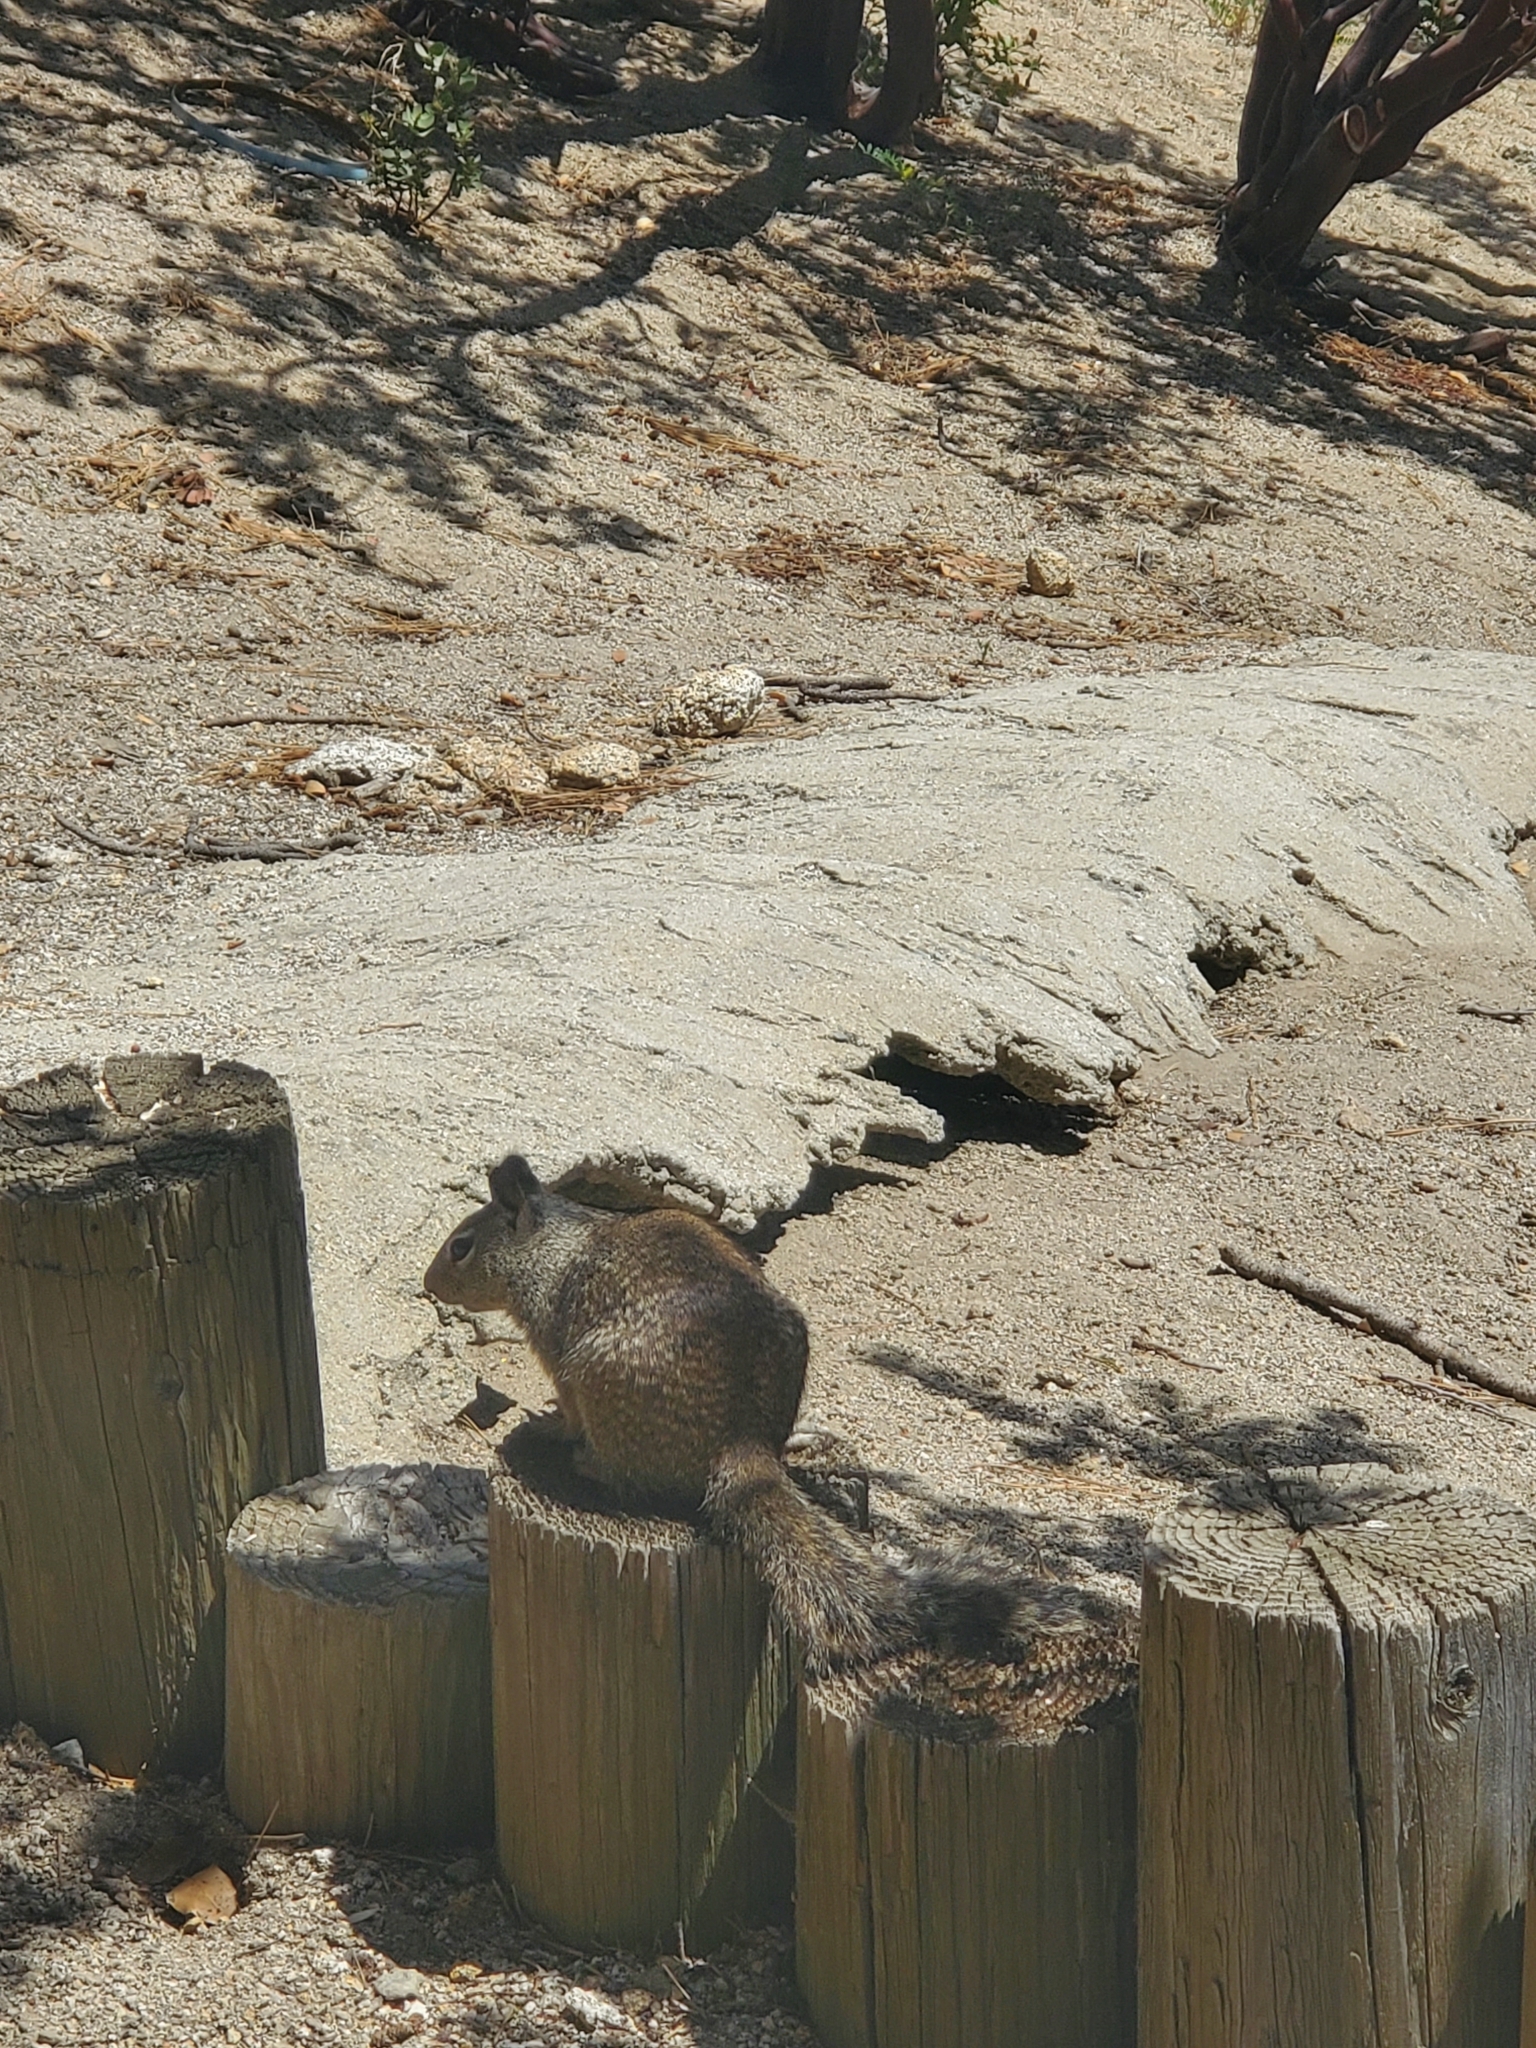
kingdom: Animalia
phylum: Chordata
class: Mammalia
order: Rodentia
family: Sciuridae
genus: Otospermophilus
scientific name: Otospermophilus beecheyi
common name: California ground squirrel
